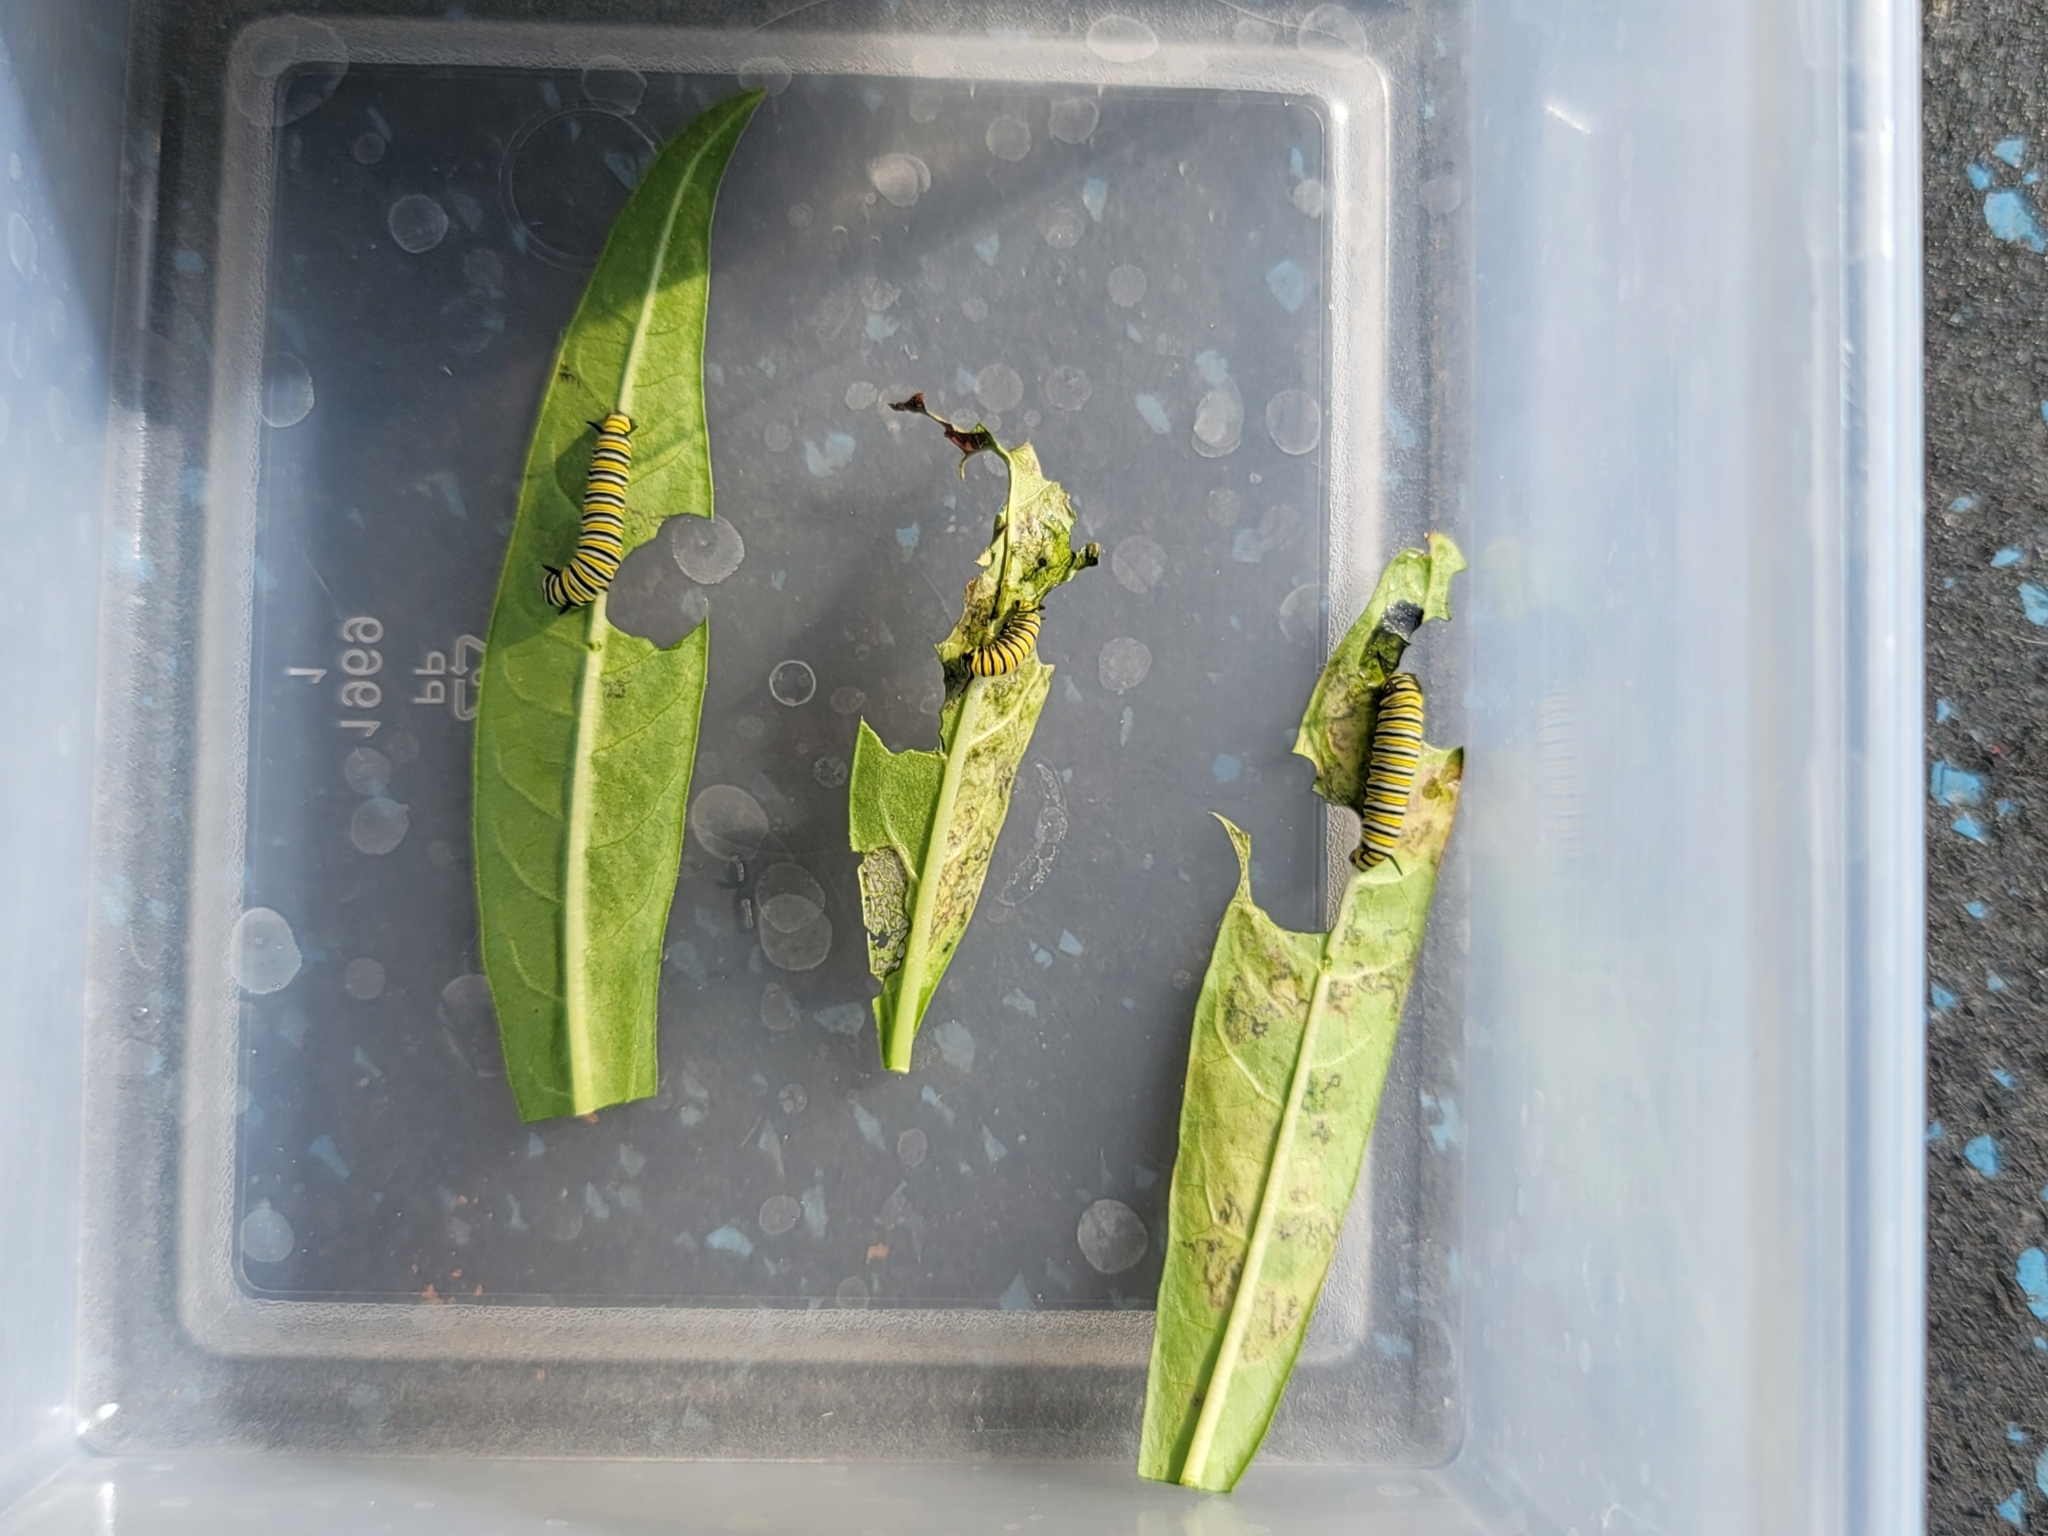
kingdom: Animalia
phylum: Arthropoda
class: Insecta
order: Lepidoptera
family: Nymphalidae
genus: Danaus
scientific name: Danaus plexippus
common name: Monarch
